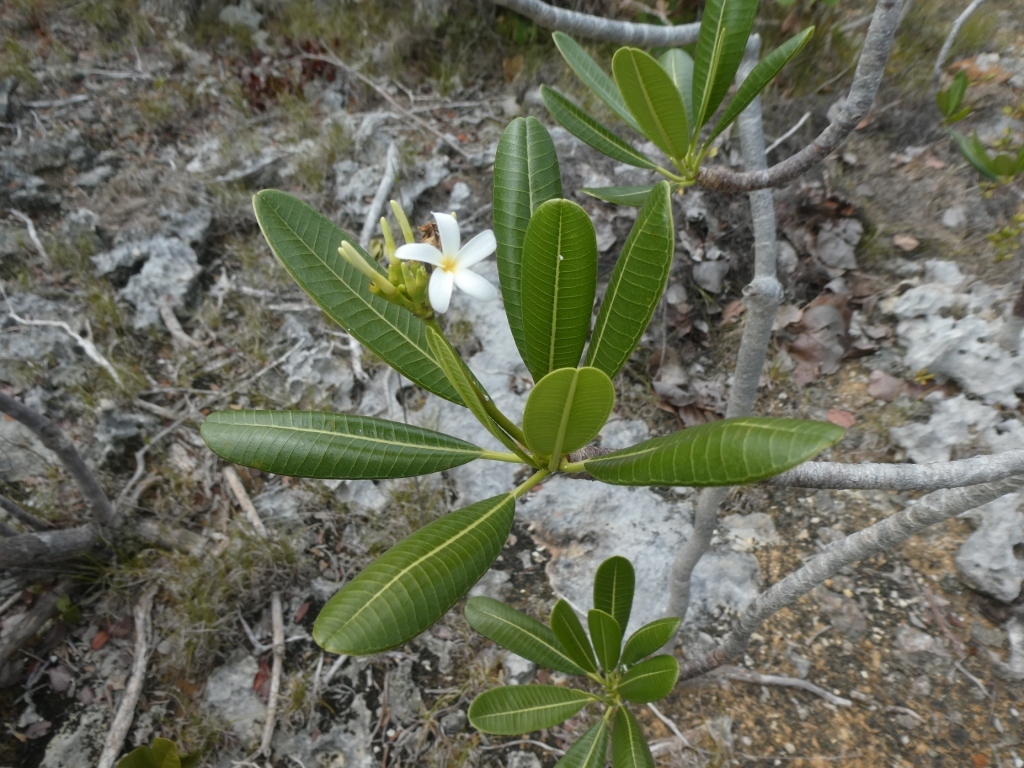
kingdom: Plantae
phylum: Tracheophyta
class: Magnoliopsida
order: Gentianales
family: Apocynaceae
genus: Plumeria
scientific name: Plumeria obtusa
